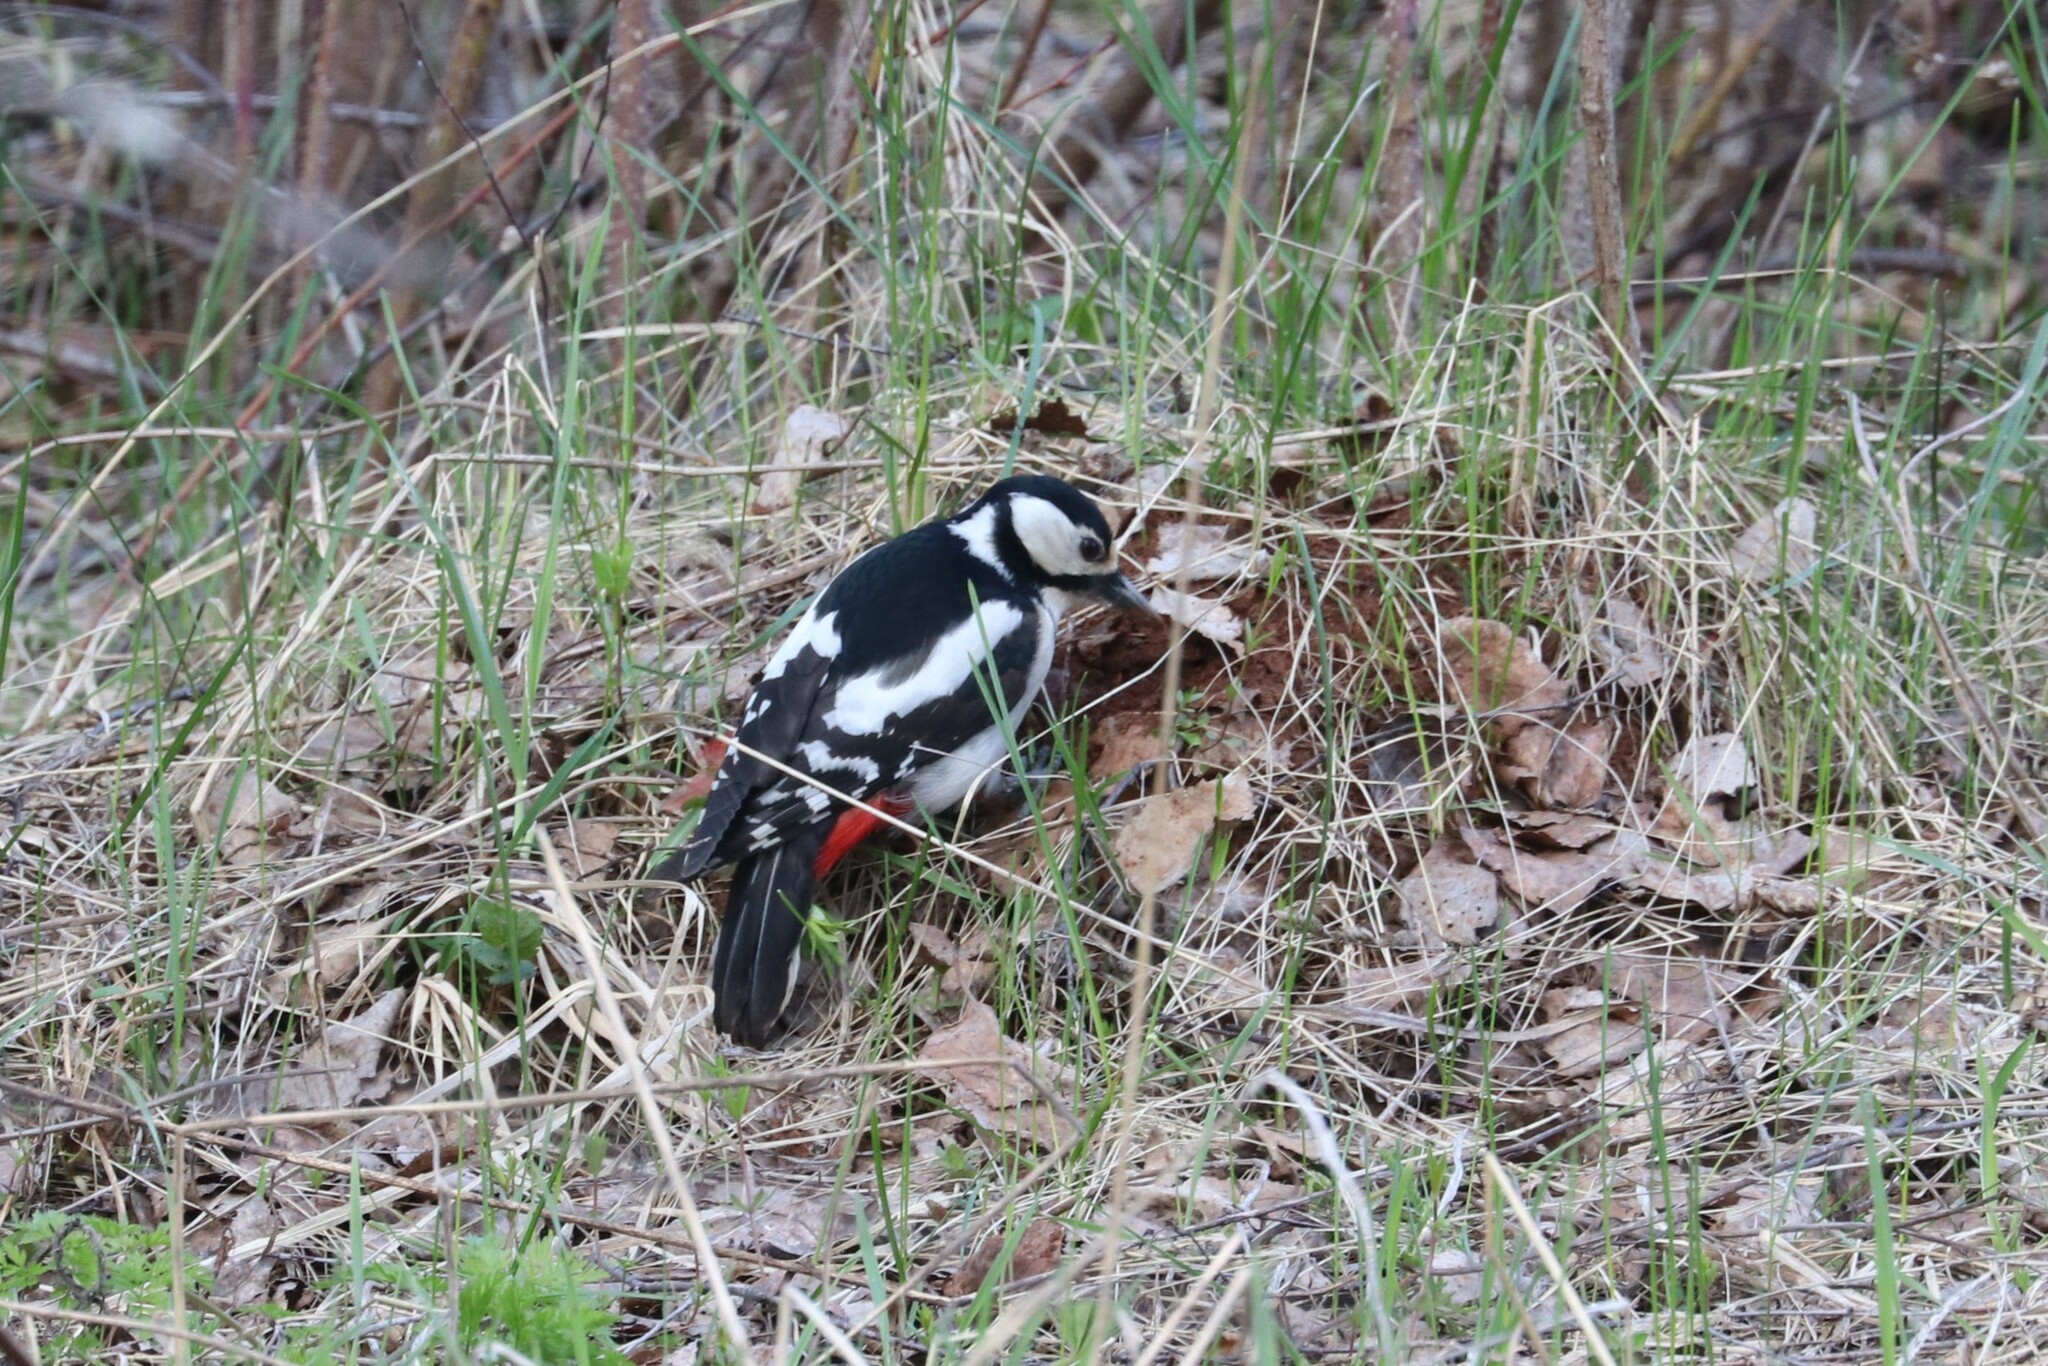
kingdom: Animalia
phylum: Chordata
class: Aves
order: Piciformes
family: Picidae
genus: Dendrocopos
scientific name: Dendrocopos major
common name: Great spotted woodpecker
